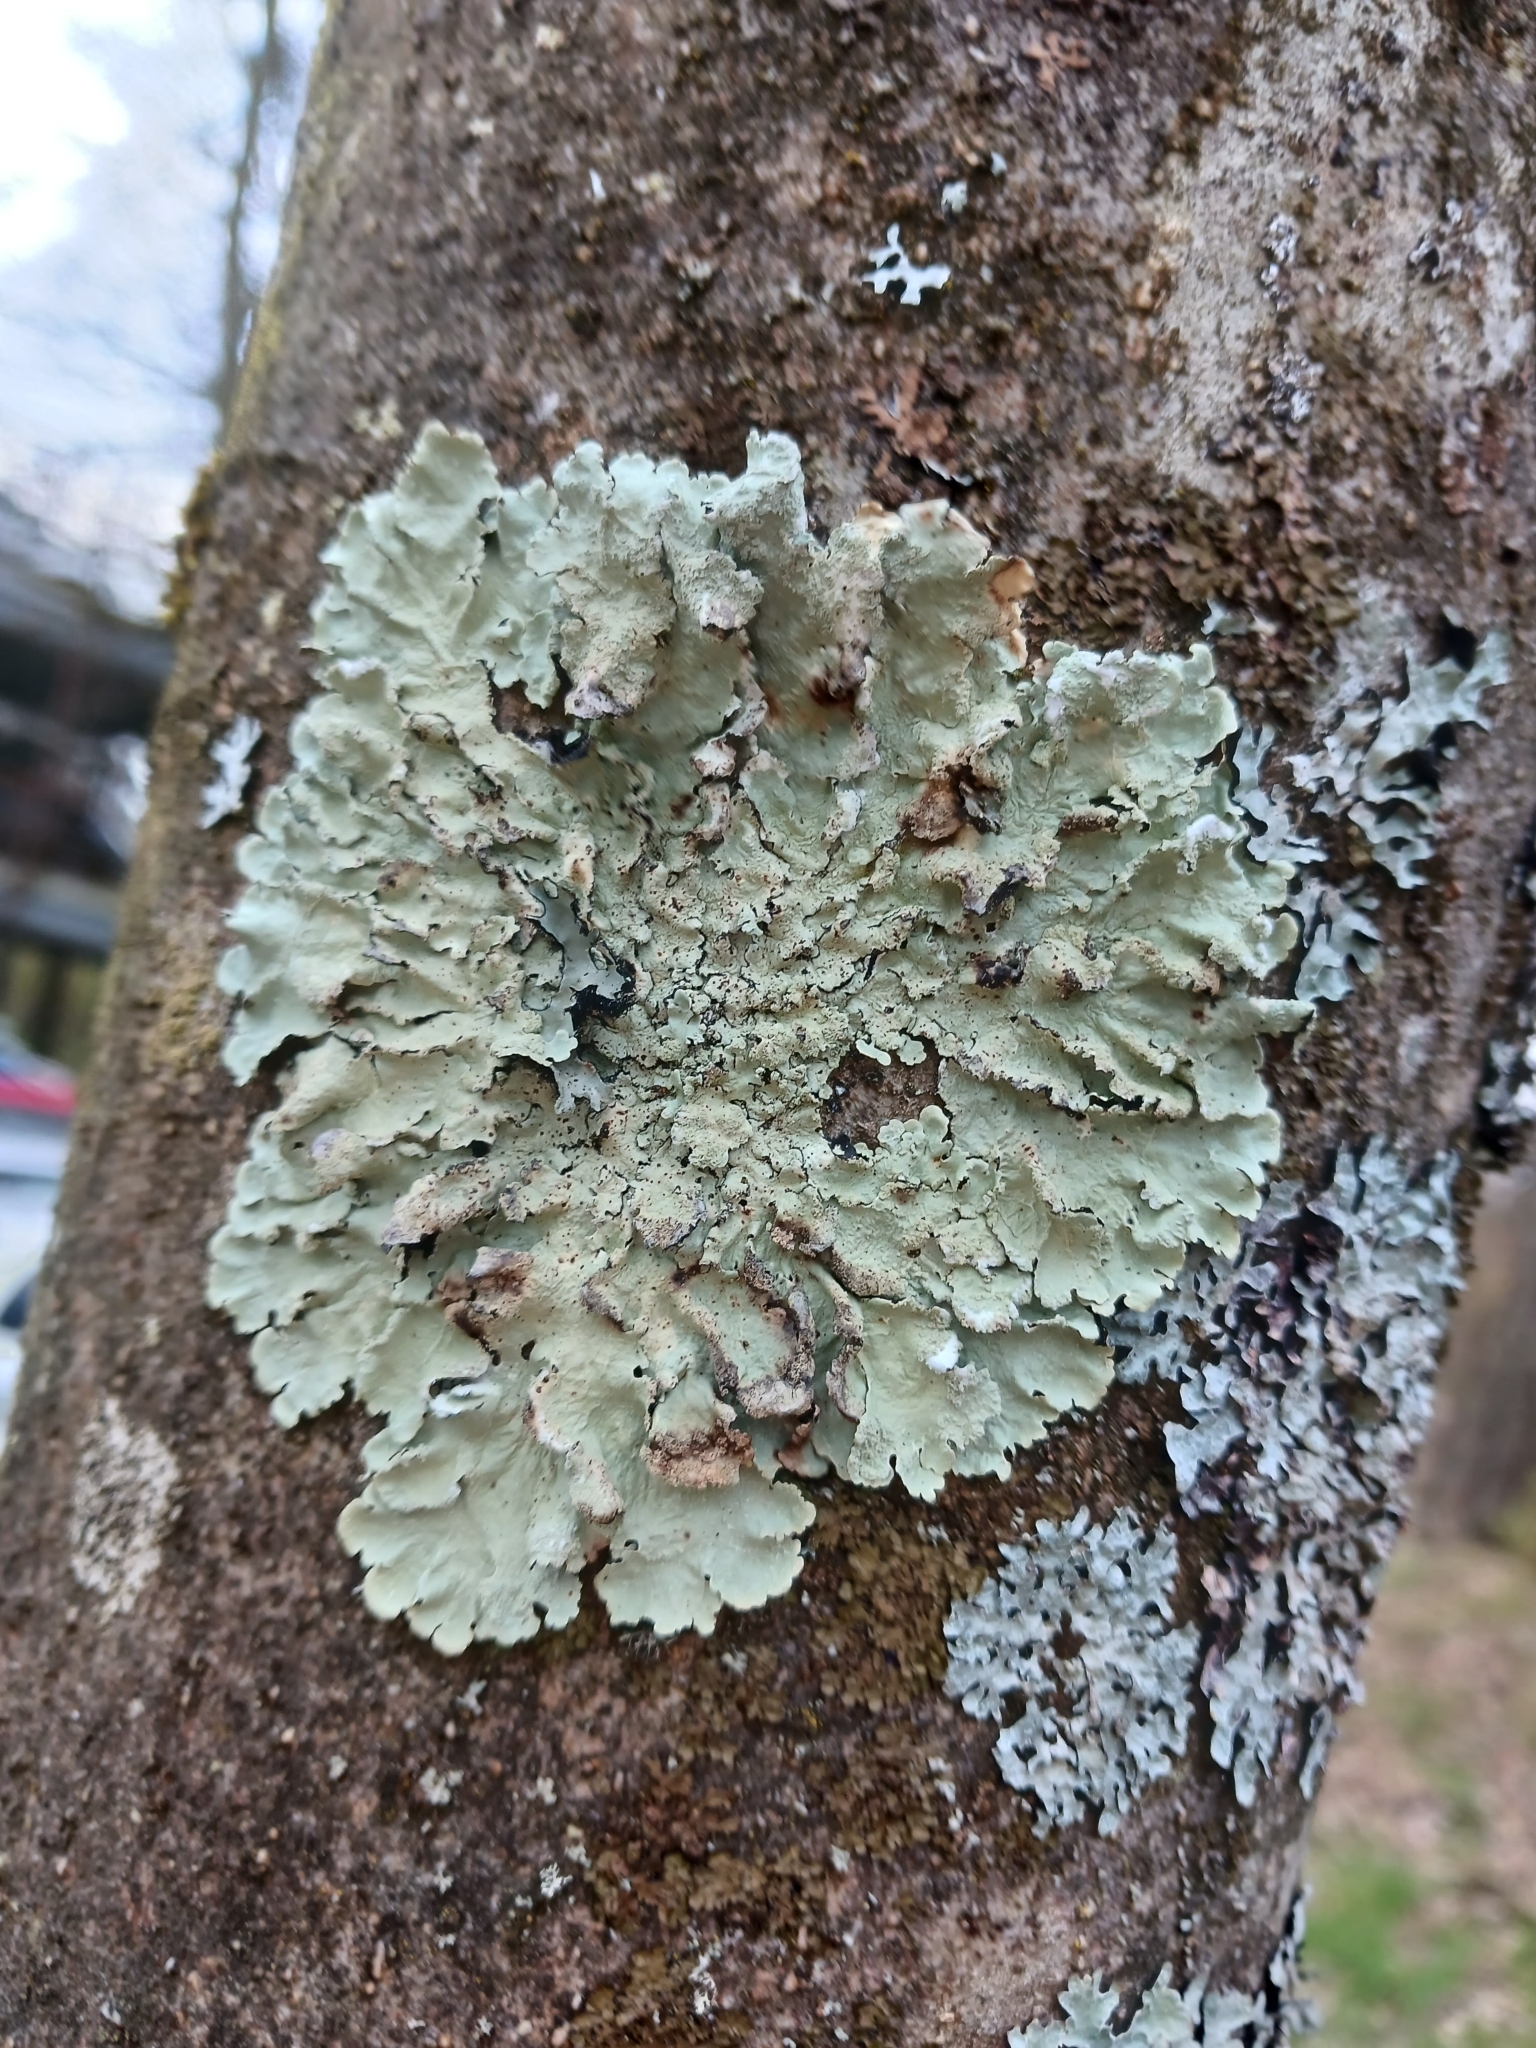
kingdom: Fungi
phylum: Ascomycota
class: Lecanoromycetes
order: Lecanorales
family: Parmeliaceae
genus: Flavoparmelia
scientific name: Flavoparmelia caperata
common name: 40-mile per hour lichen
